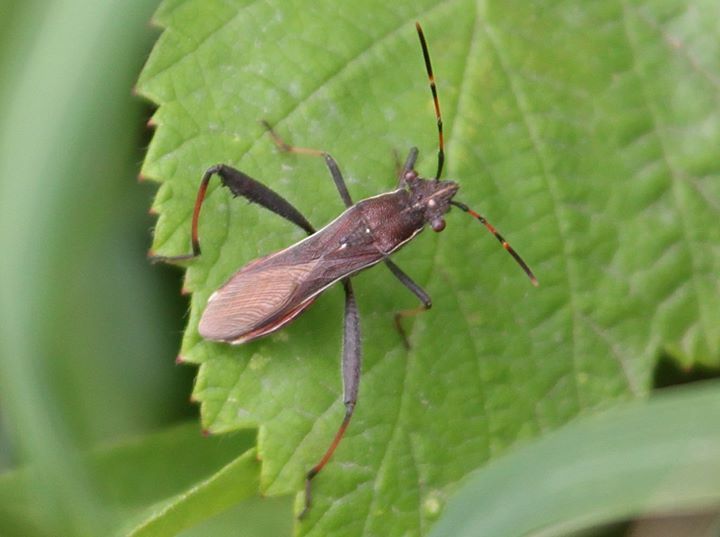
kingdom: Animalia
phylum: Arthropoda
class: Insecta
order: Hemiptera
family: Alydidae
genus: Camptopus
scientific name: Camptopus lateralis
